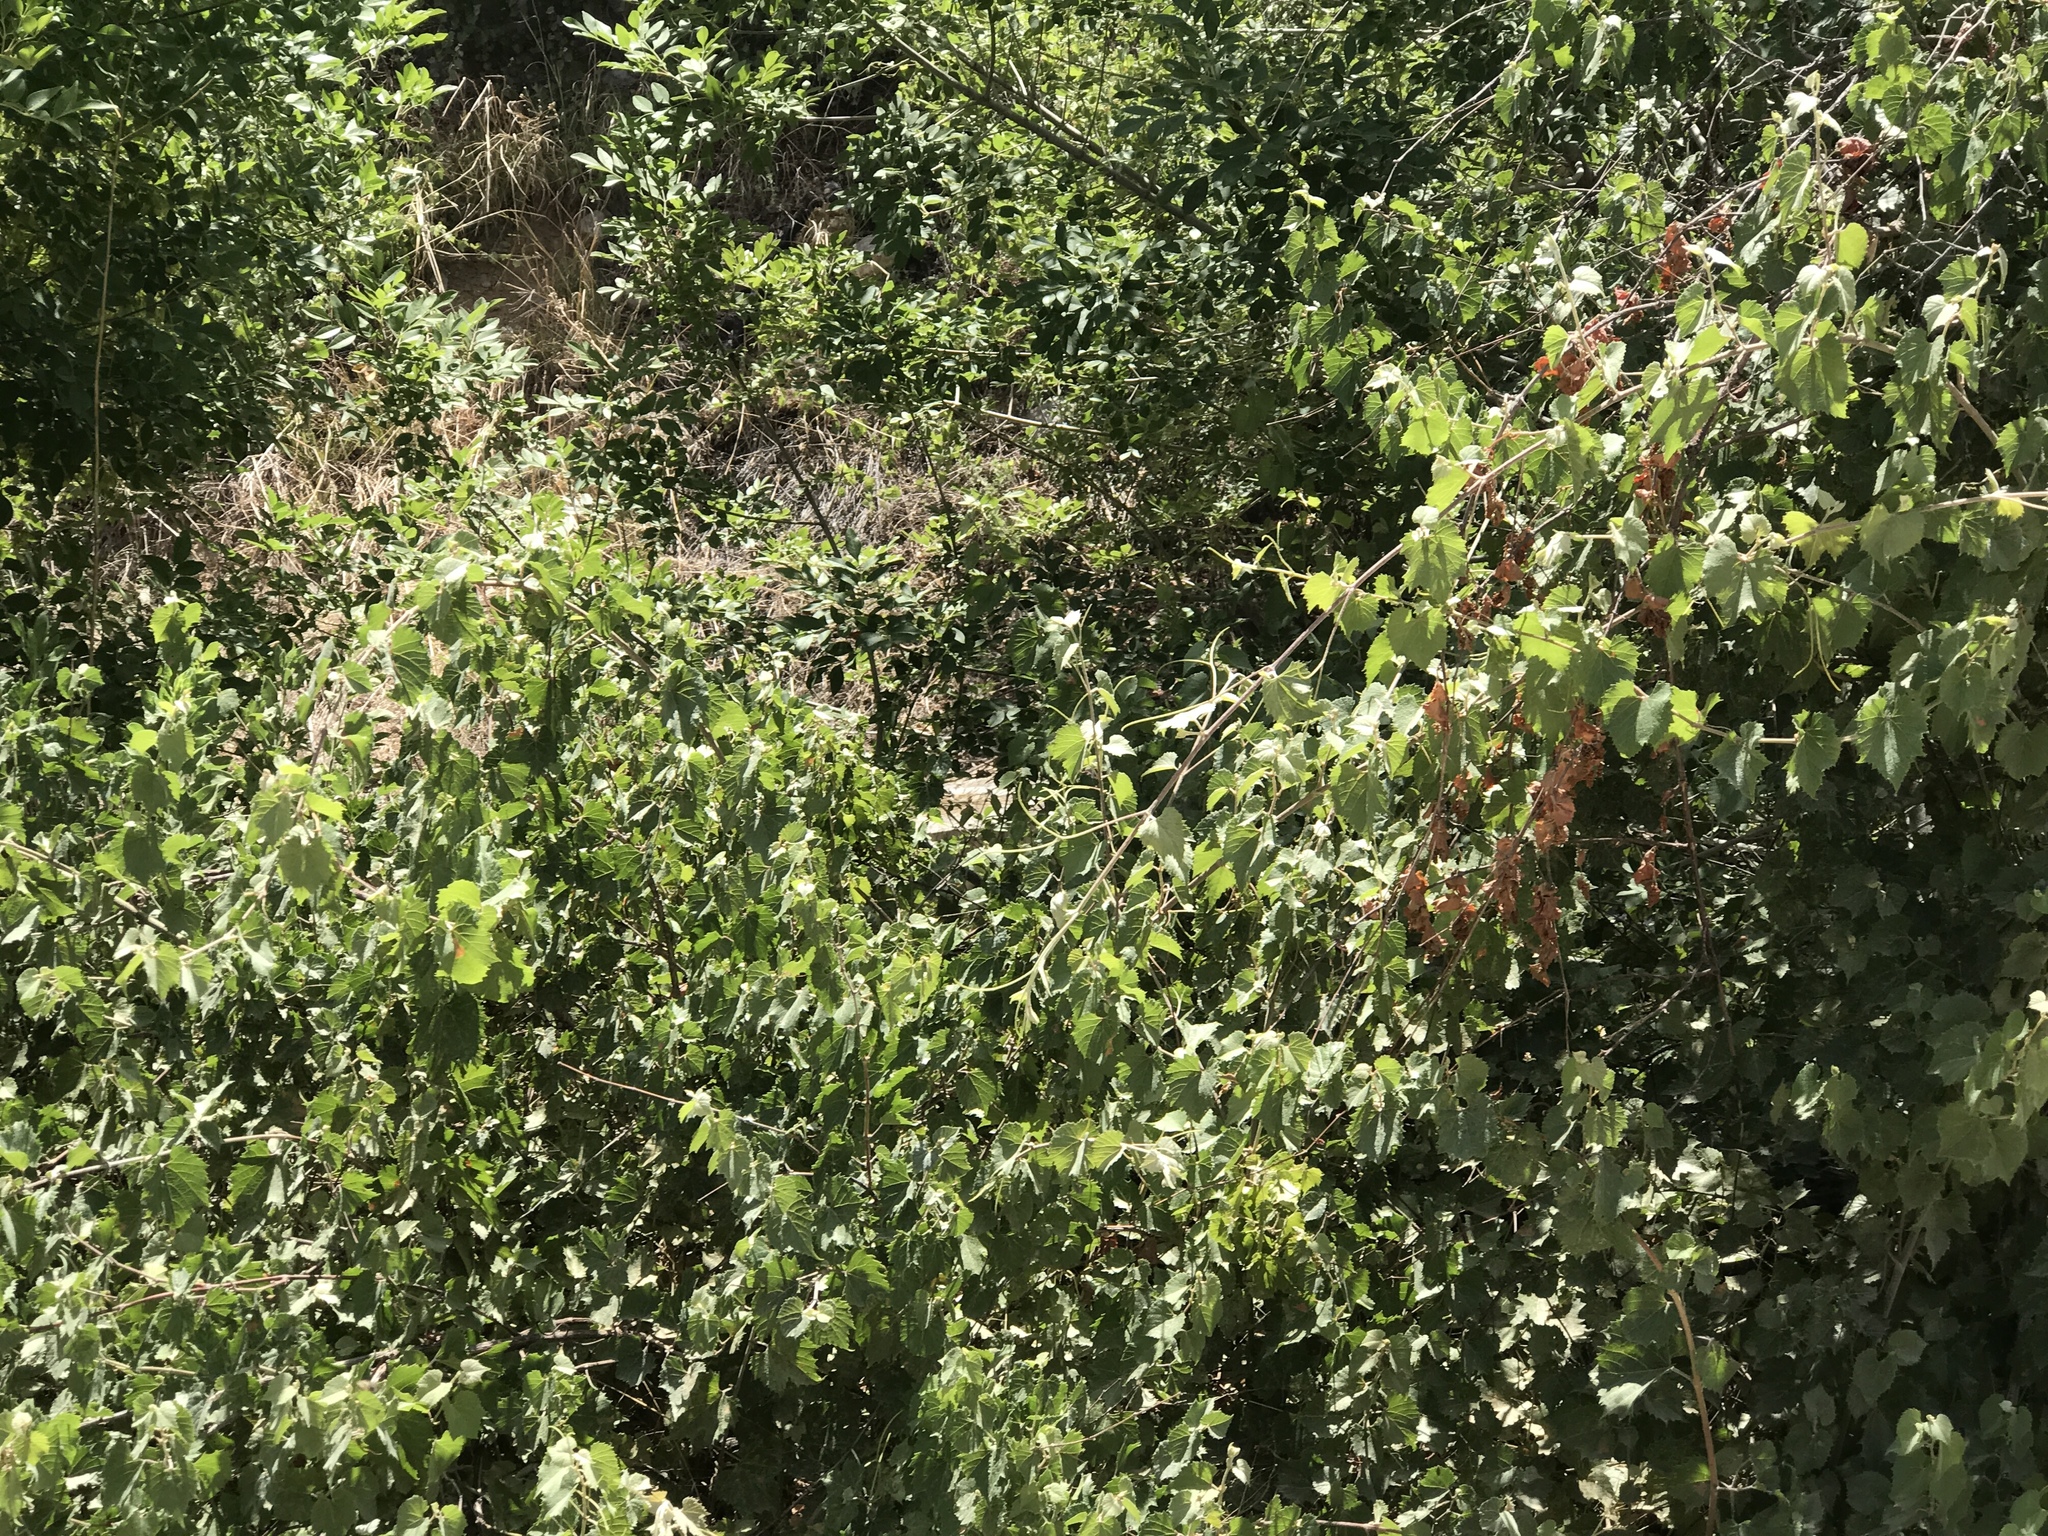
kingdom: Plantae
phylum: Tracheophyta
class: Magnoliopsida
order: Vitales
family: Vitaceae
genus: Vitis
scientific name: Vitis arizonica
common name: Canyon grape
